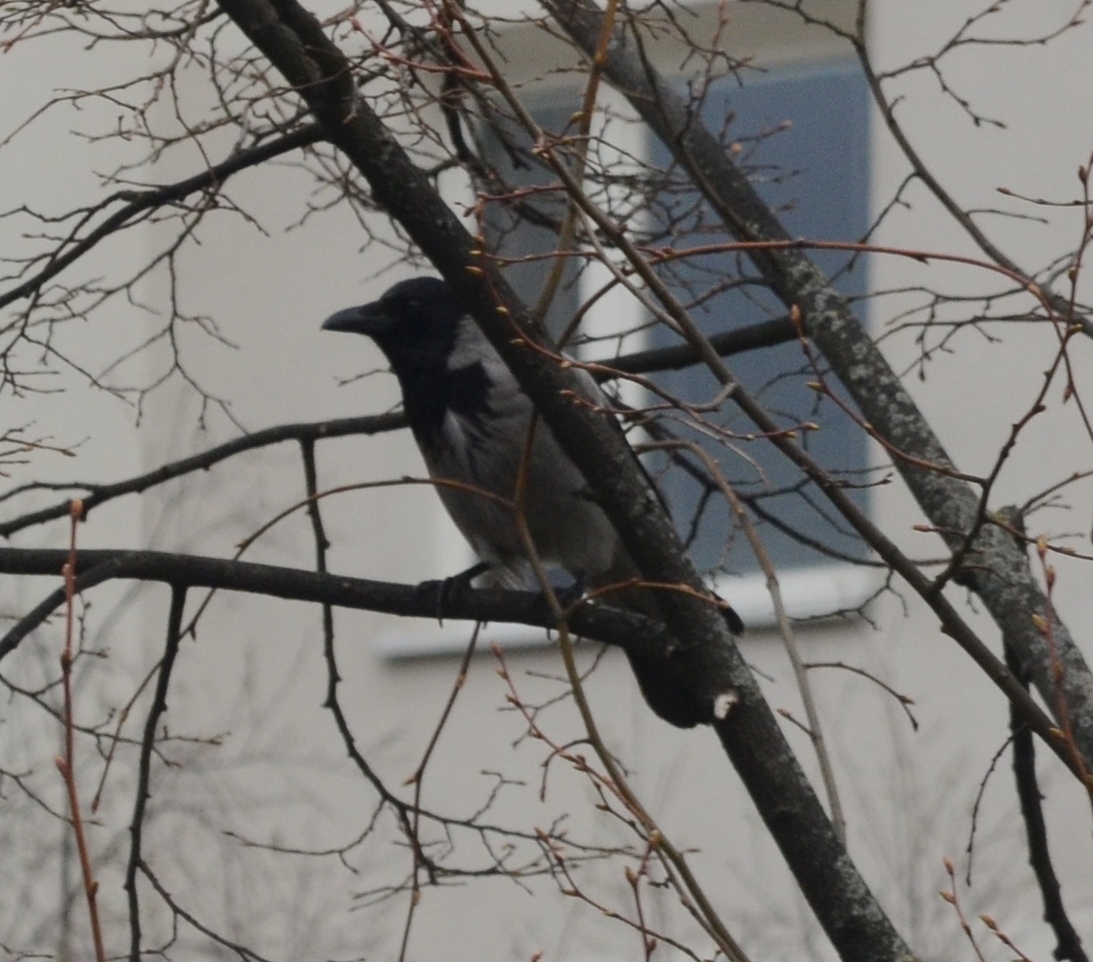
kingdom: Animalia
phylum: Chordata
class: Aves
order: Passeriformes
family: Corvidae
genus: Corvus
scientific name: Corvus cornix
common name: Hooded crow
